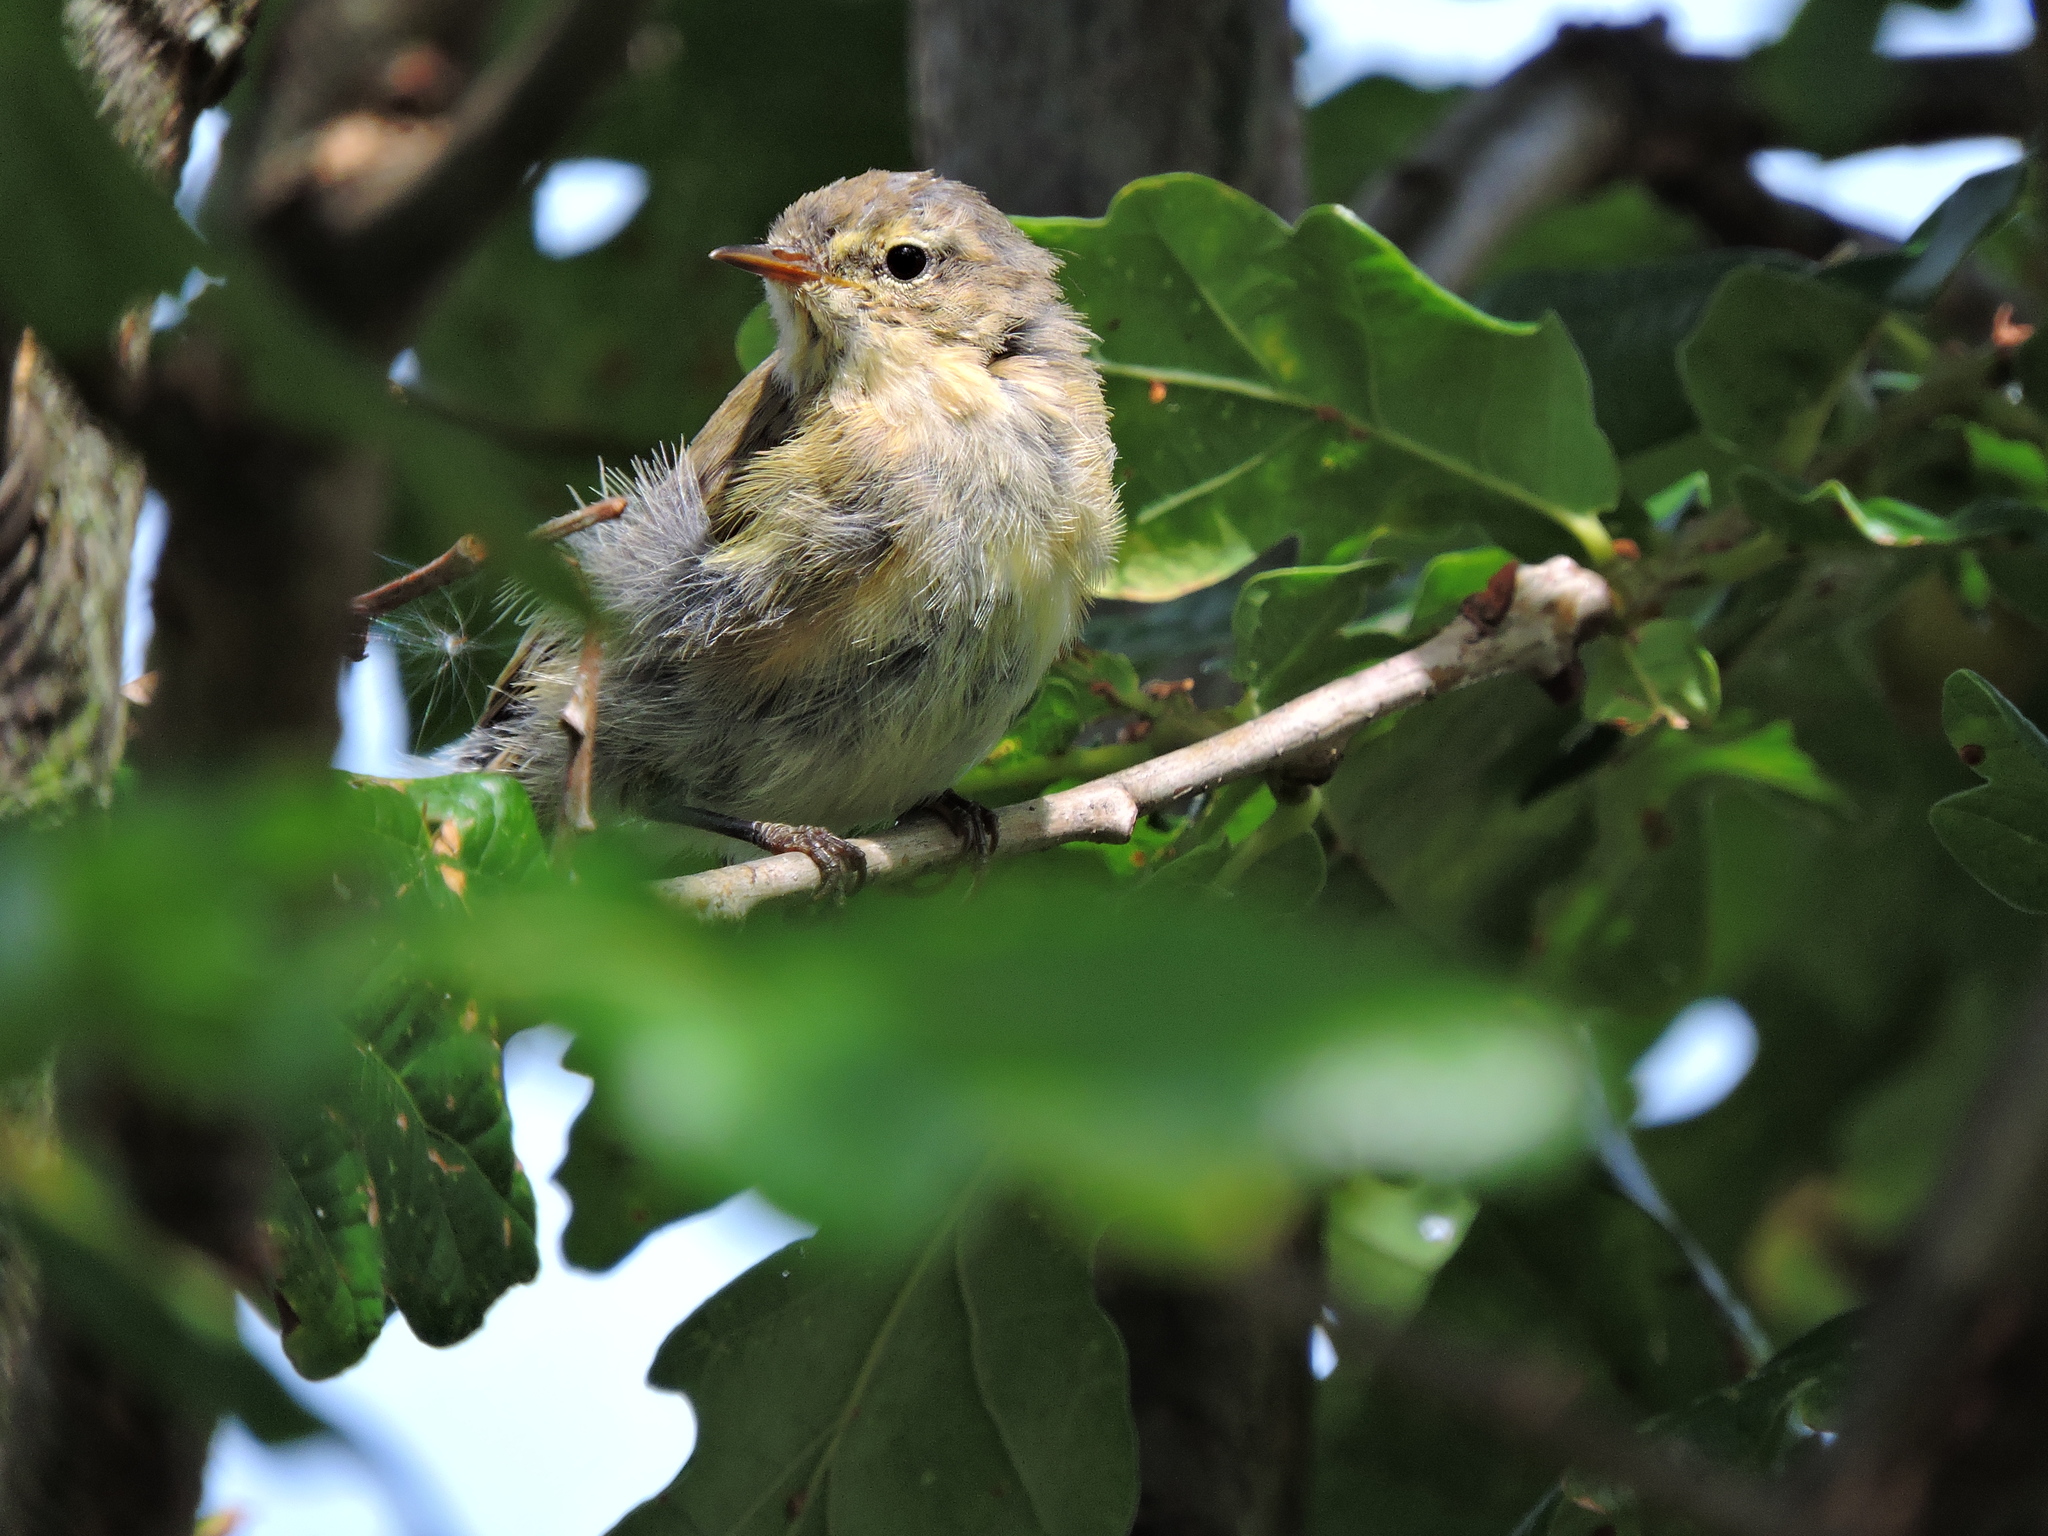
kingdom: Animalia
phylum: Chordata
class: Aves
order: Passeriformes
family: Phylloscopidae
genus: Phylloscopus
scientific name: Phylloscopus collybita
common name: Common chiffchaff
